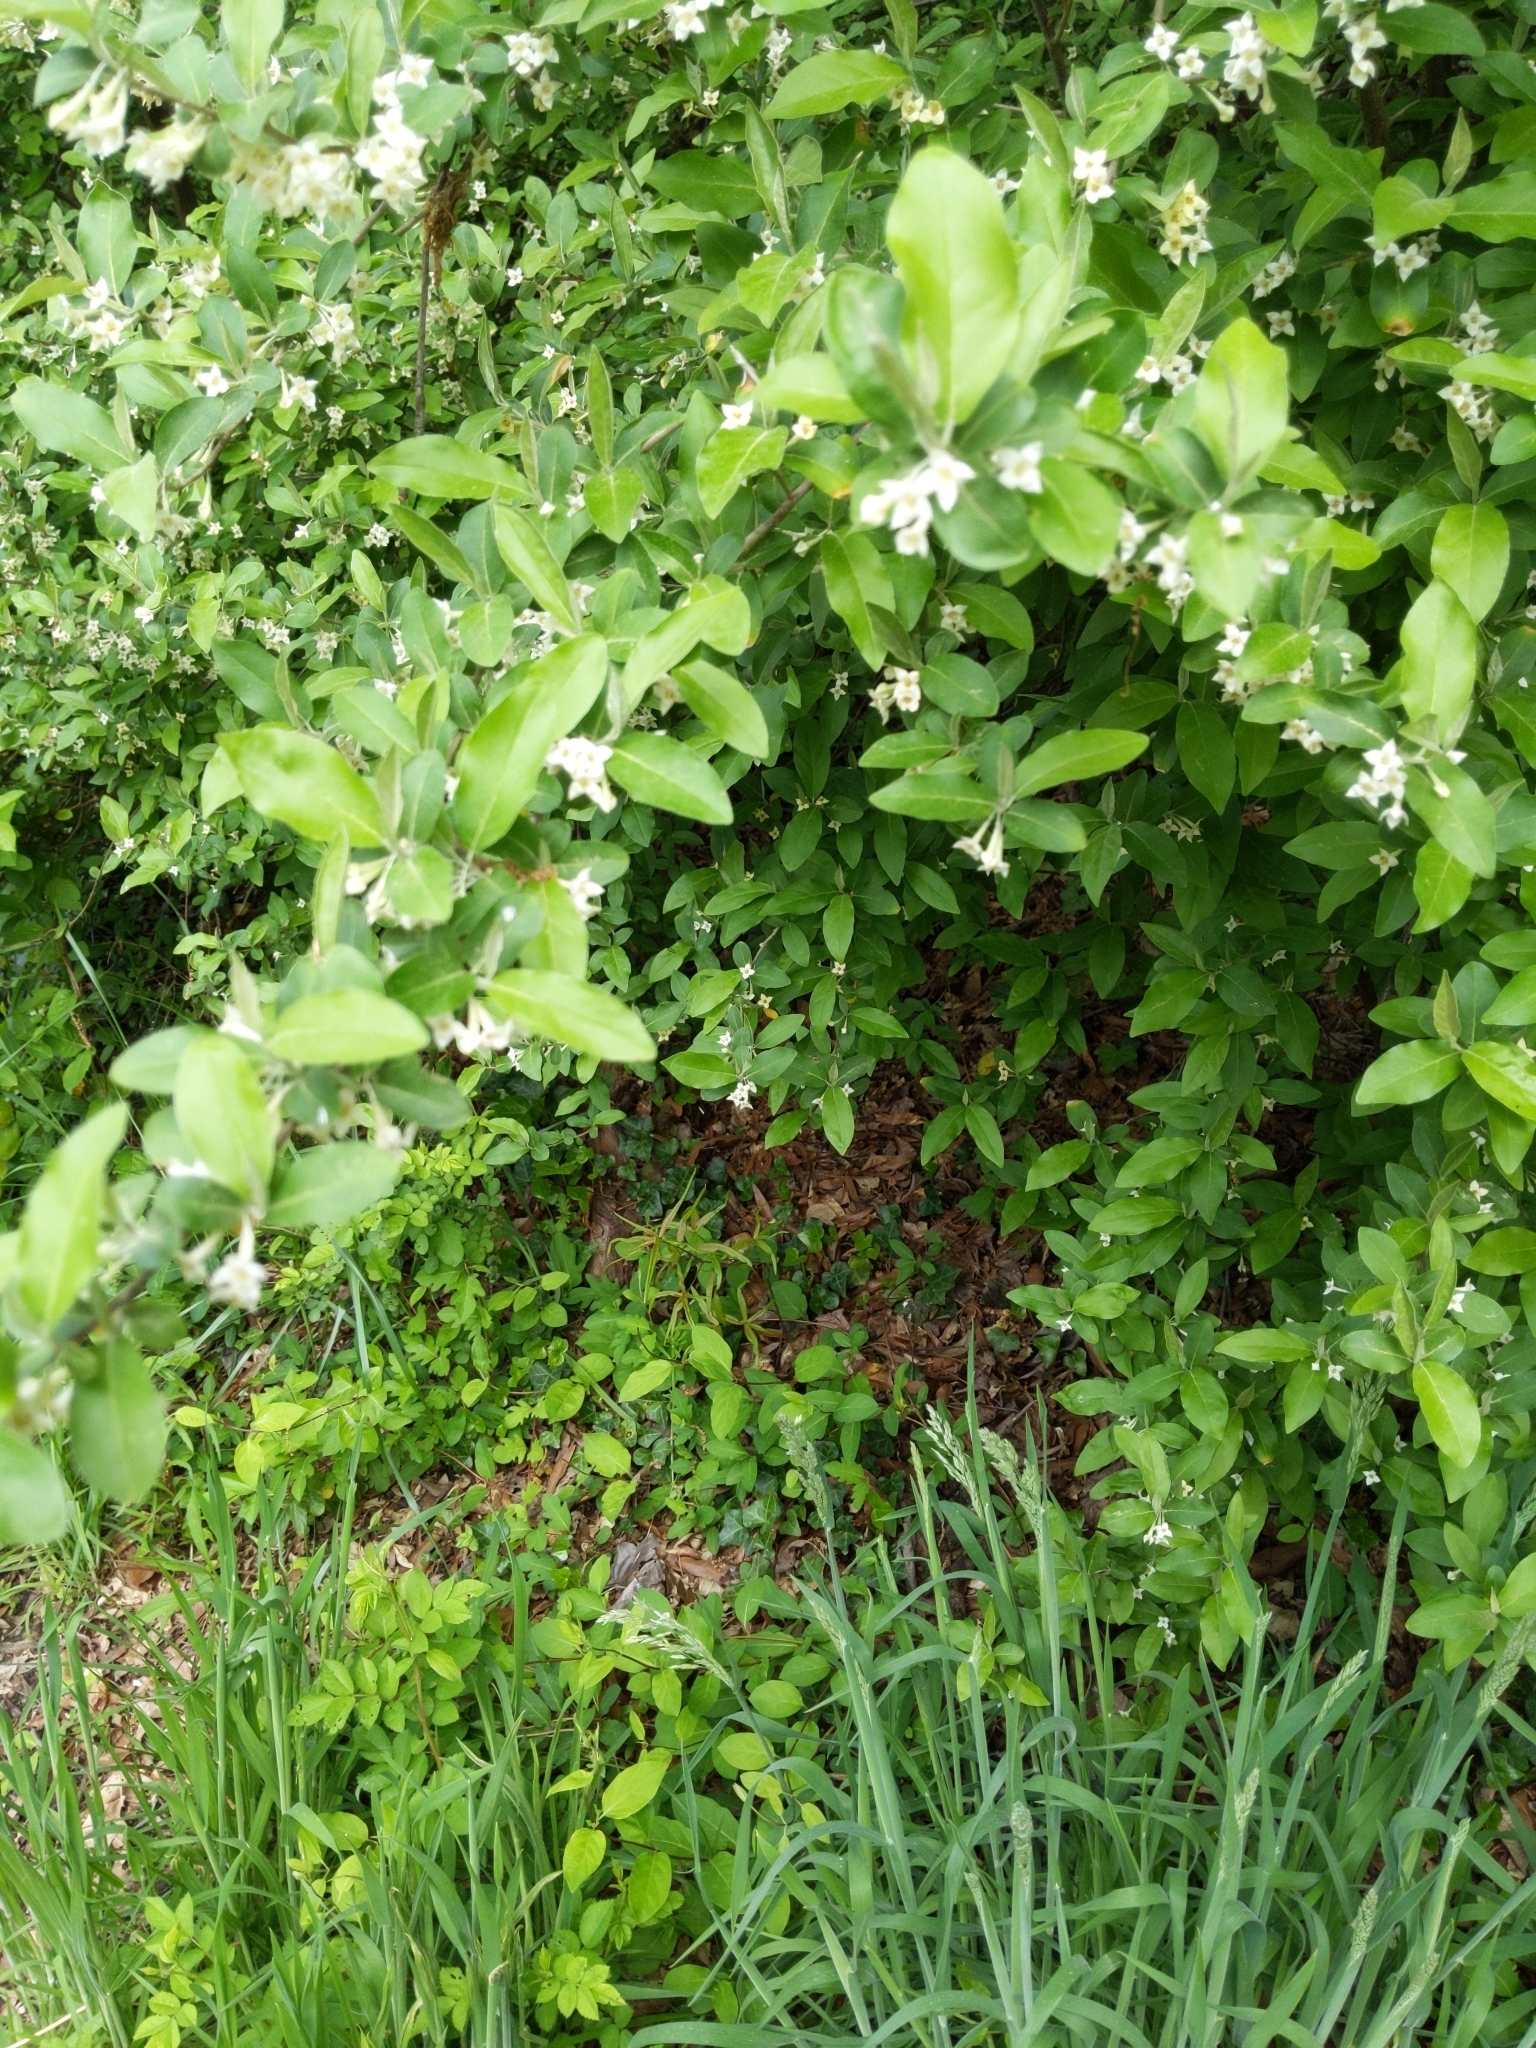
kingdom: Plantae
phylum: Tracheophyta
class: Magnoliopsida
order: Rosales
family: Elaeagnaceae
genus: Elaeagnus
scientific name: Elaeagnus umbellata
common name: Autumn olive
